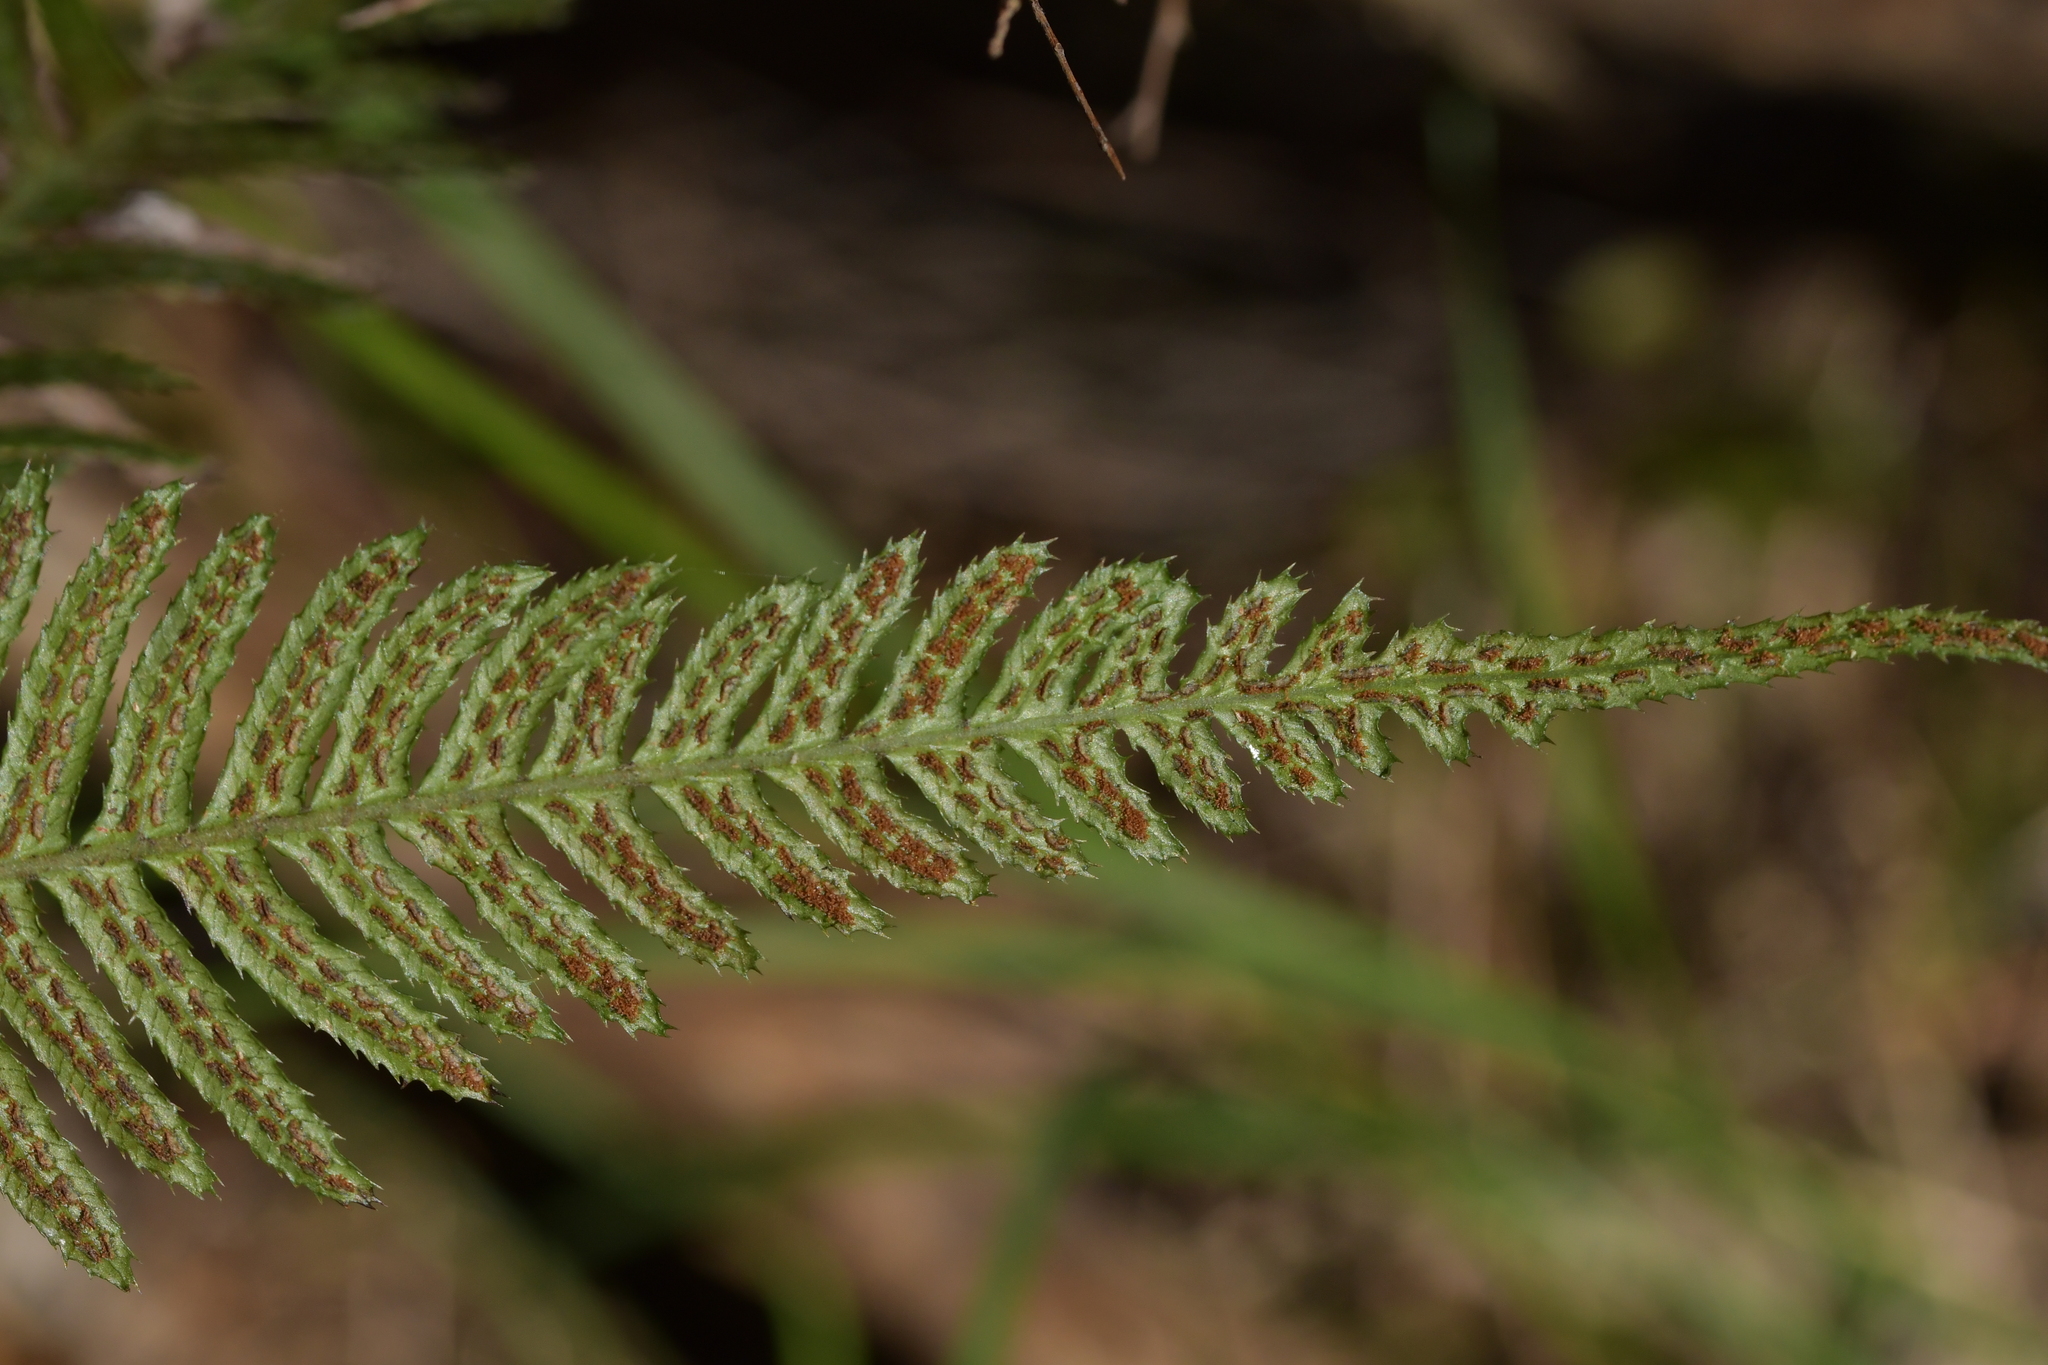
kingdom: Plantae
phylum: Tracheophyta
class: Polypodiopsida
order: Polypodiales
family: Blechnaceae
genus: Doodia
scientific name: Doodia australis
